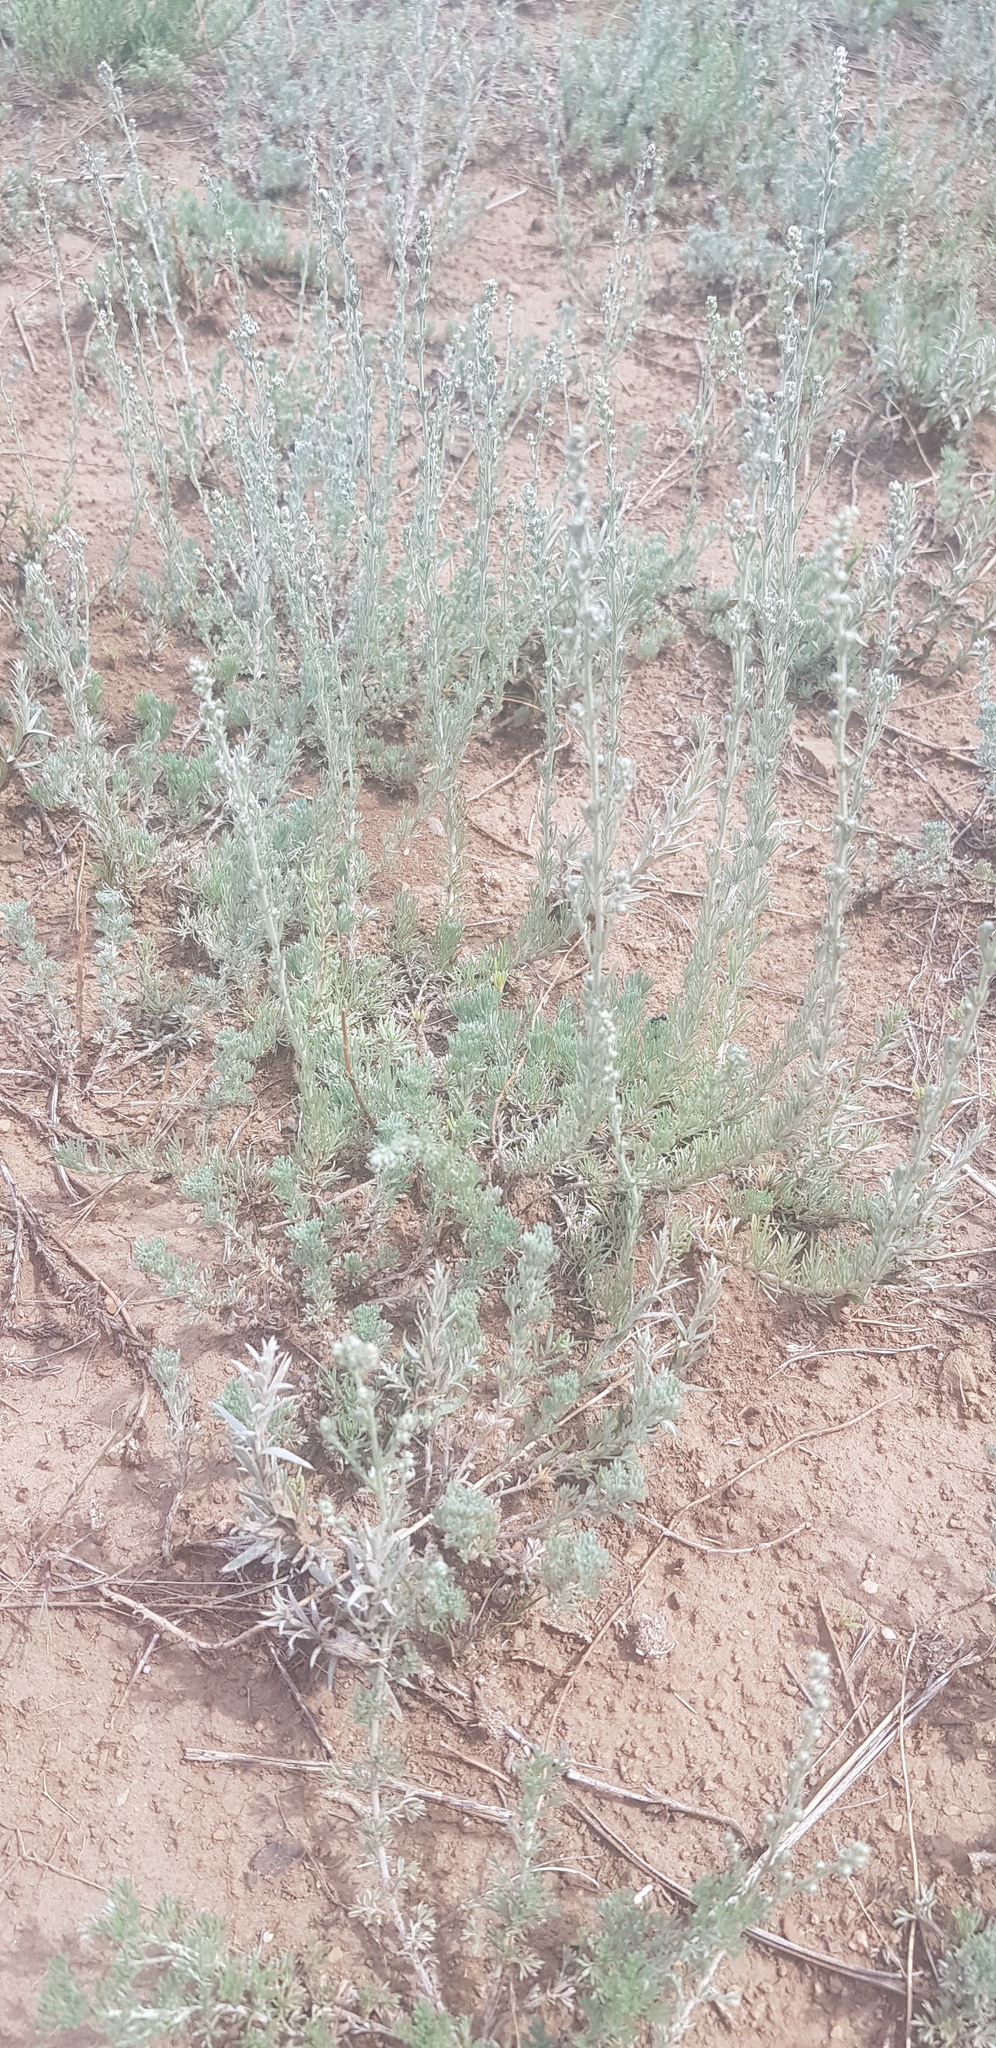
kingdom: Plantae
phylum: Tracheophyta
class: Magnoliopsida
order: Asterales
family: Asteraceae
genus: Artemisia
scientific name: Artemisia frigida
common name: Prairie sagewort
